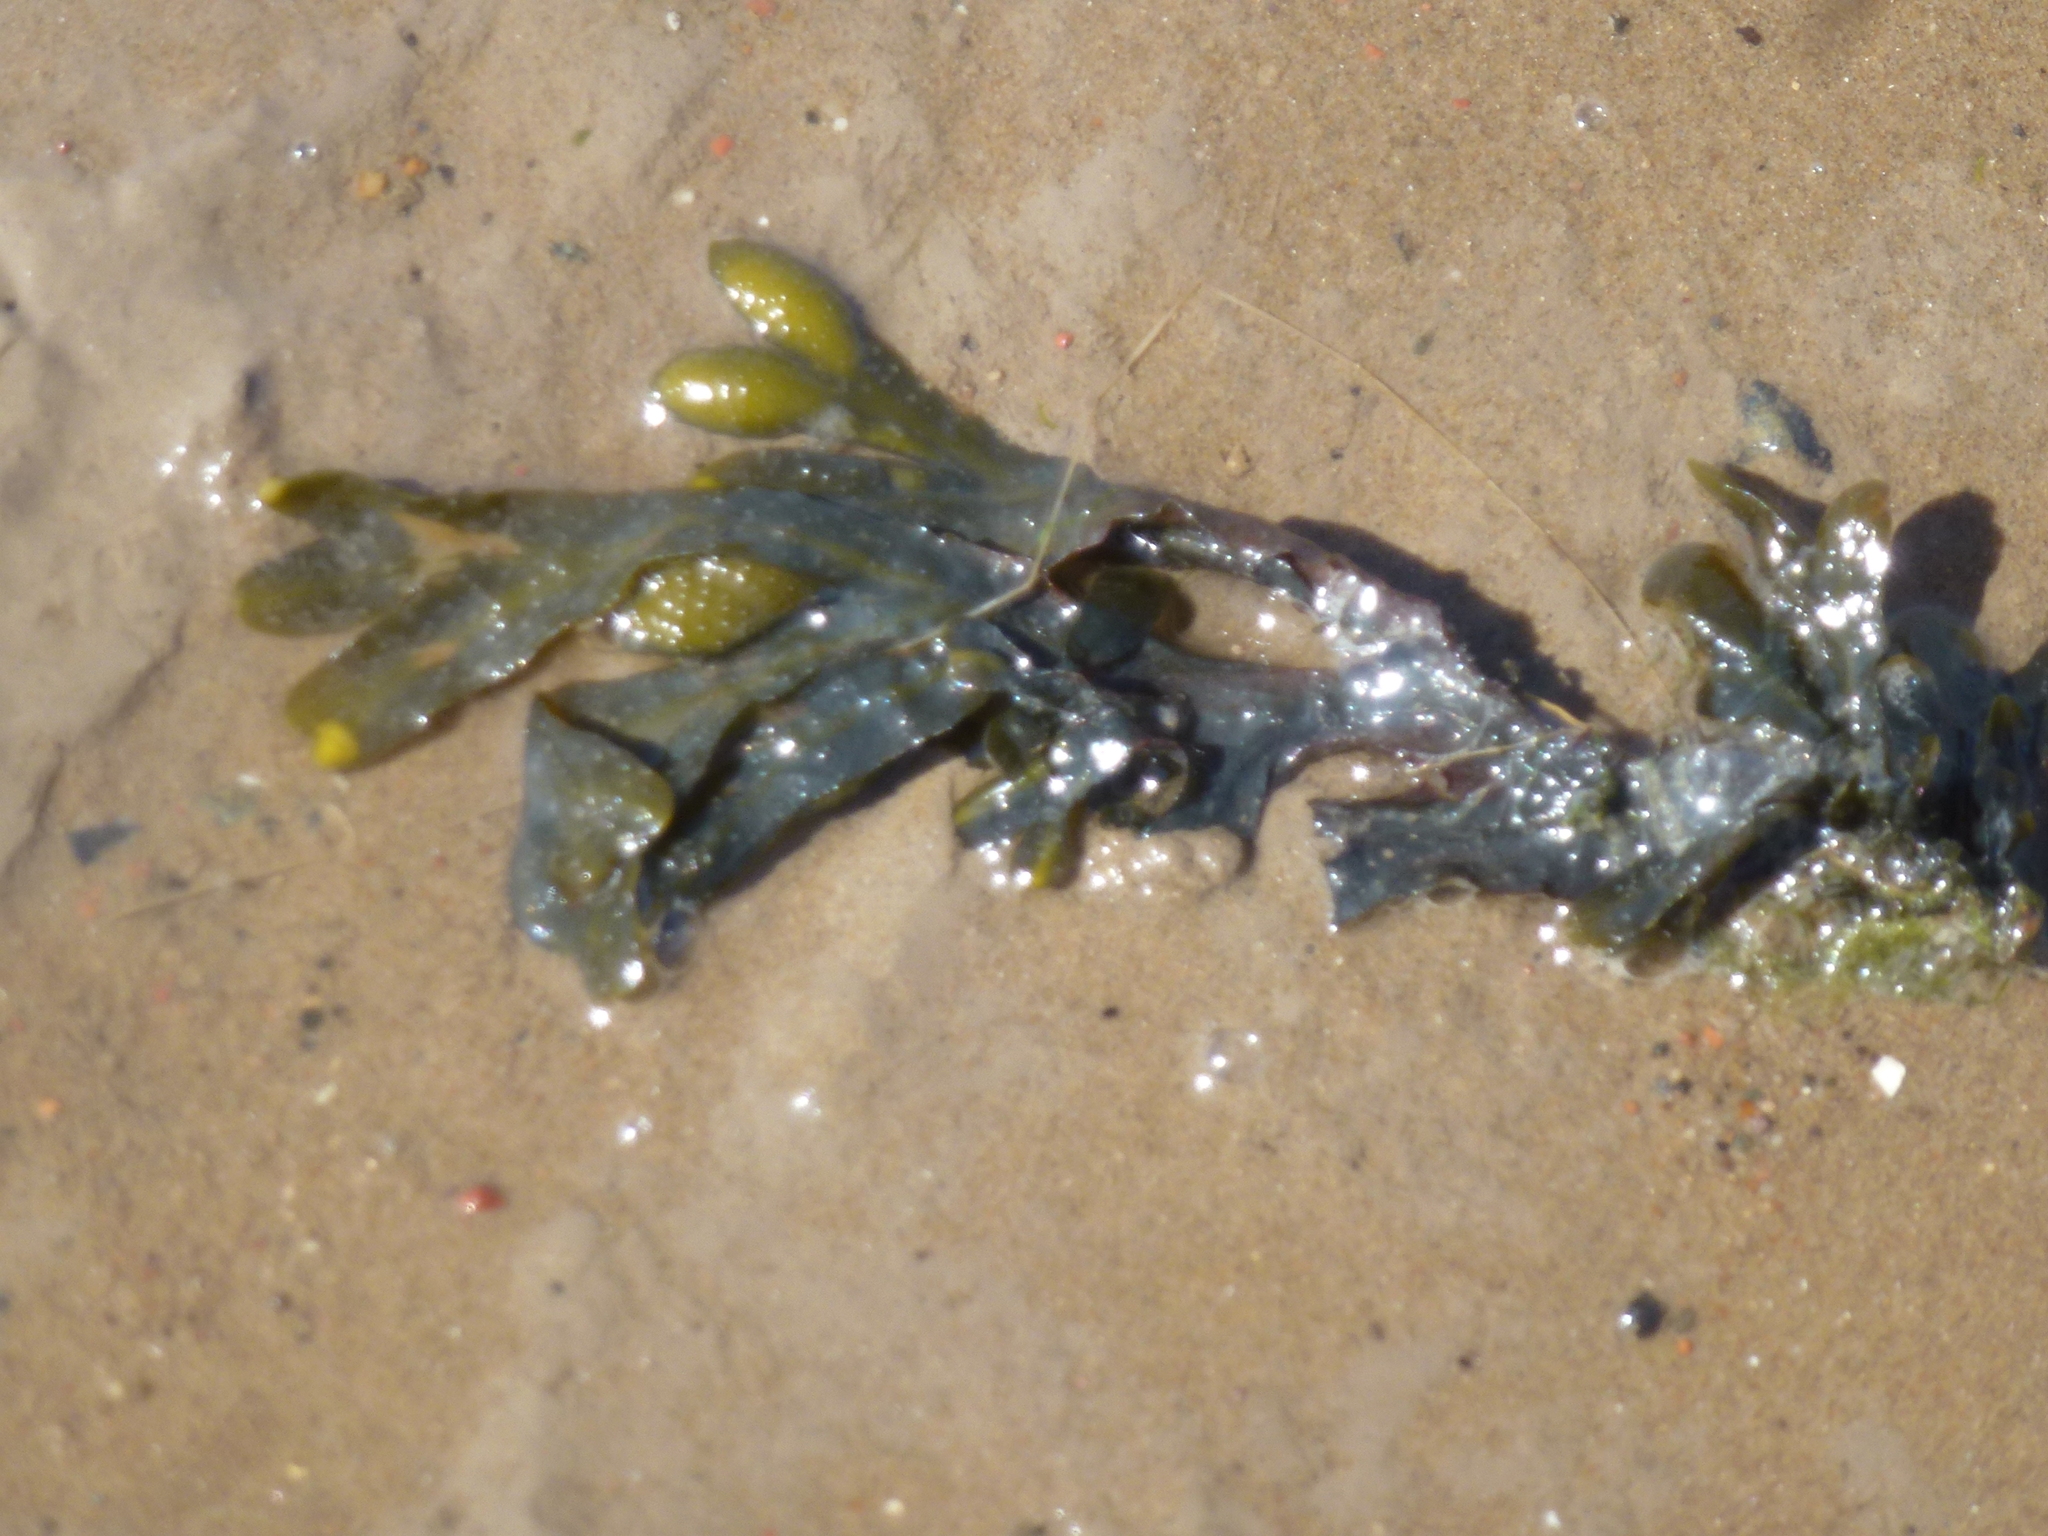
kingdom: Chromista
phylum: Ochrophyta
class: Phaeophyceae
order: Fucales
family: Fucaceae
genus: Fucus
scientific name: Fucus vesiculosus
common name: Bladder wrack
